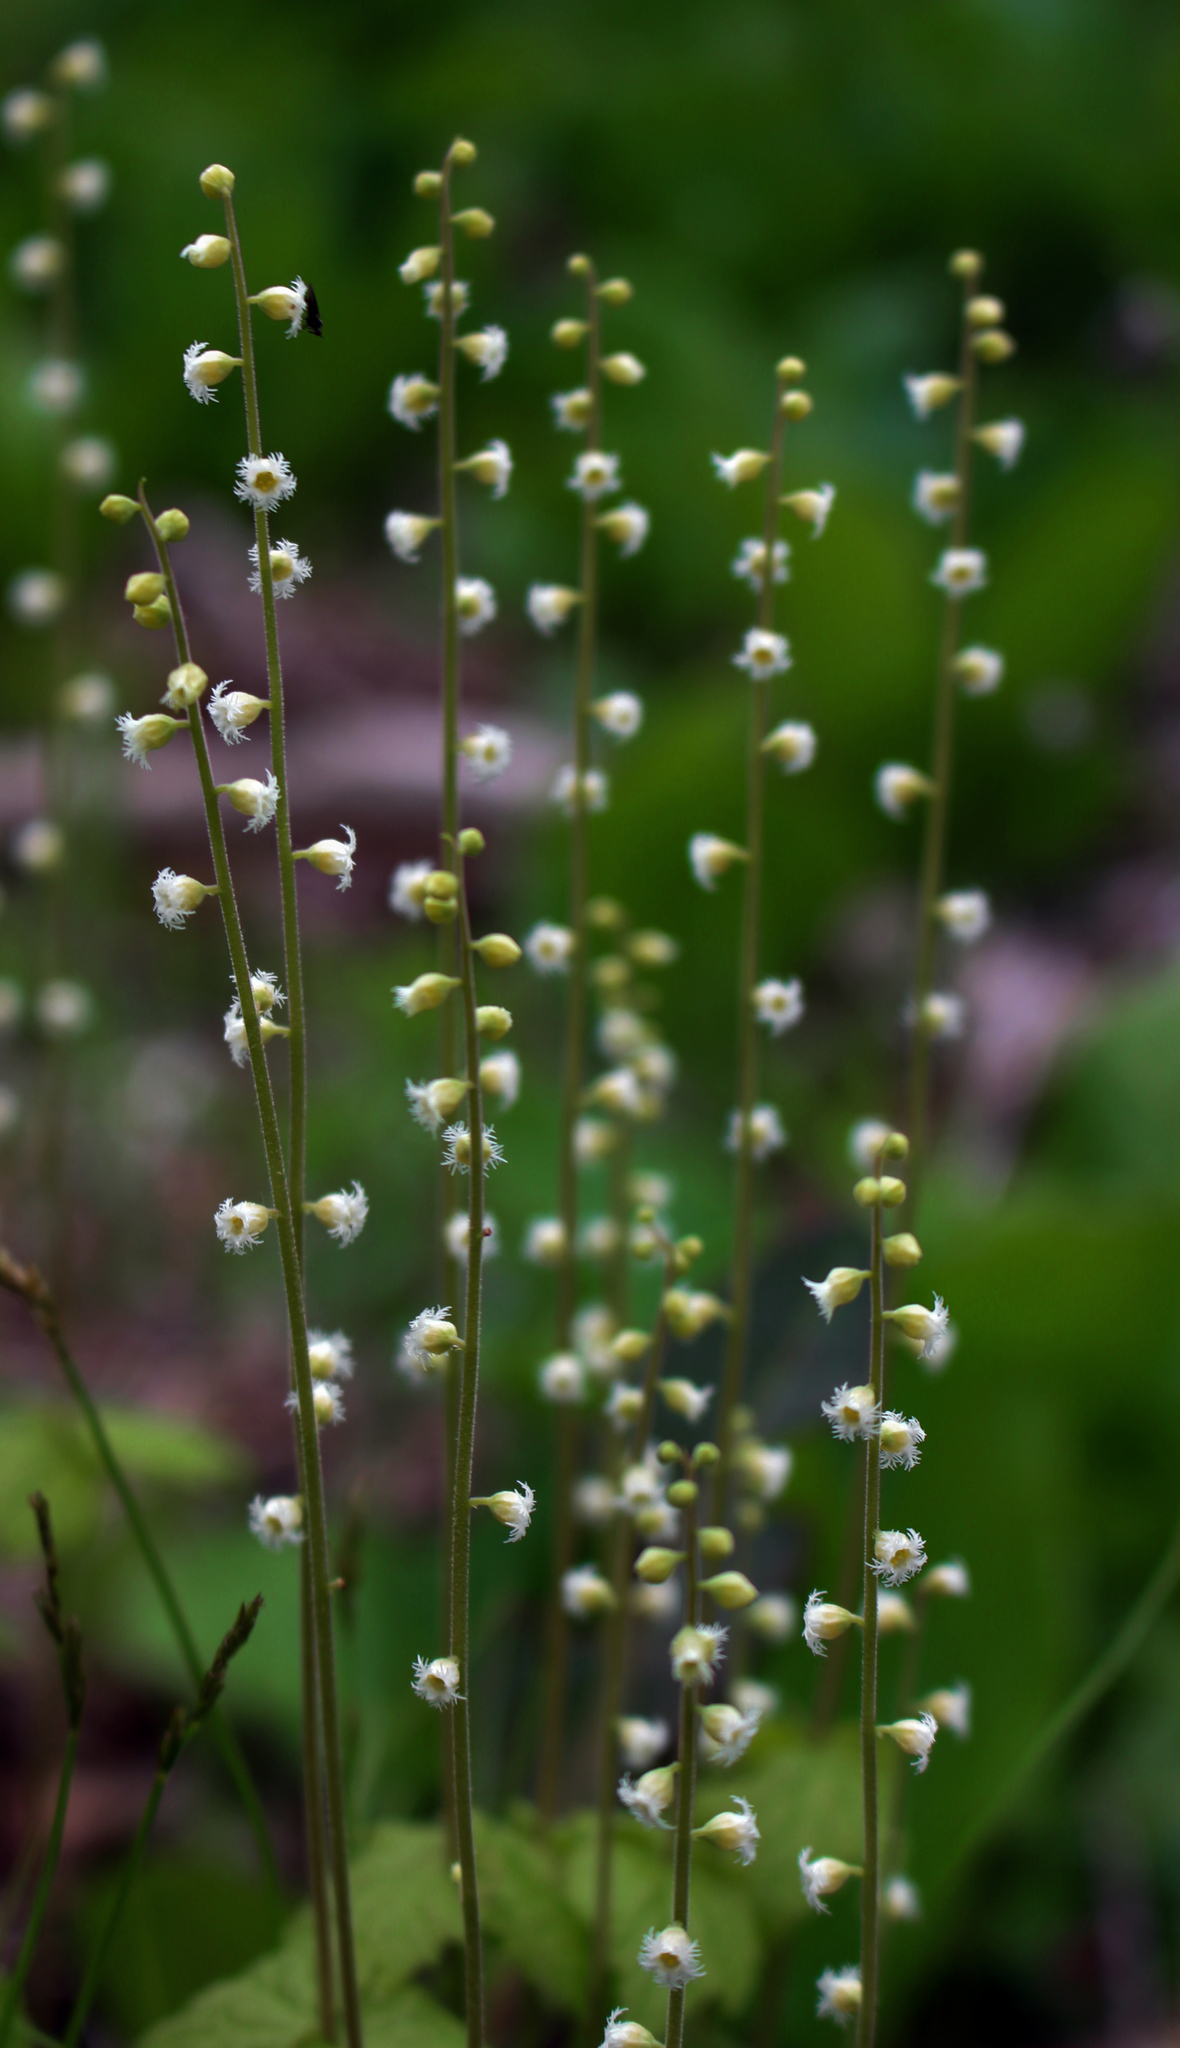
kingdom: Plantae
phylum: Tracheophyta
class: Magnoliopsida
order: Saxifragales
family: Saxifragaceae
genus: Mitella
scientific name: Mitella diphylla
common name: Coolwort
